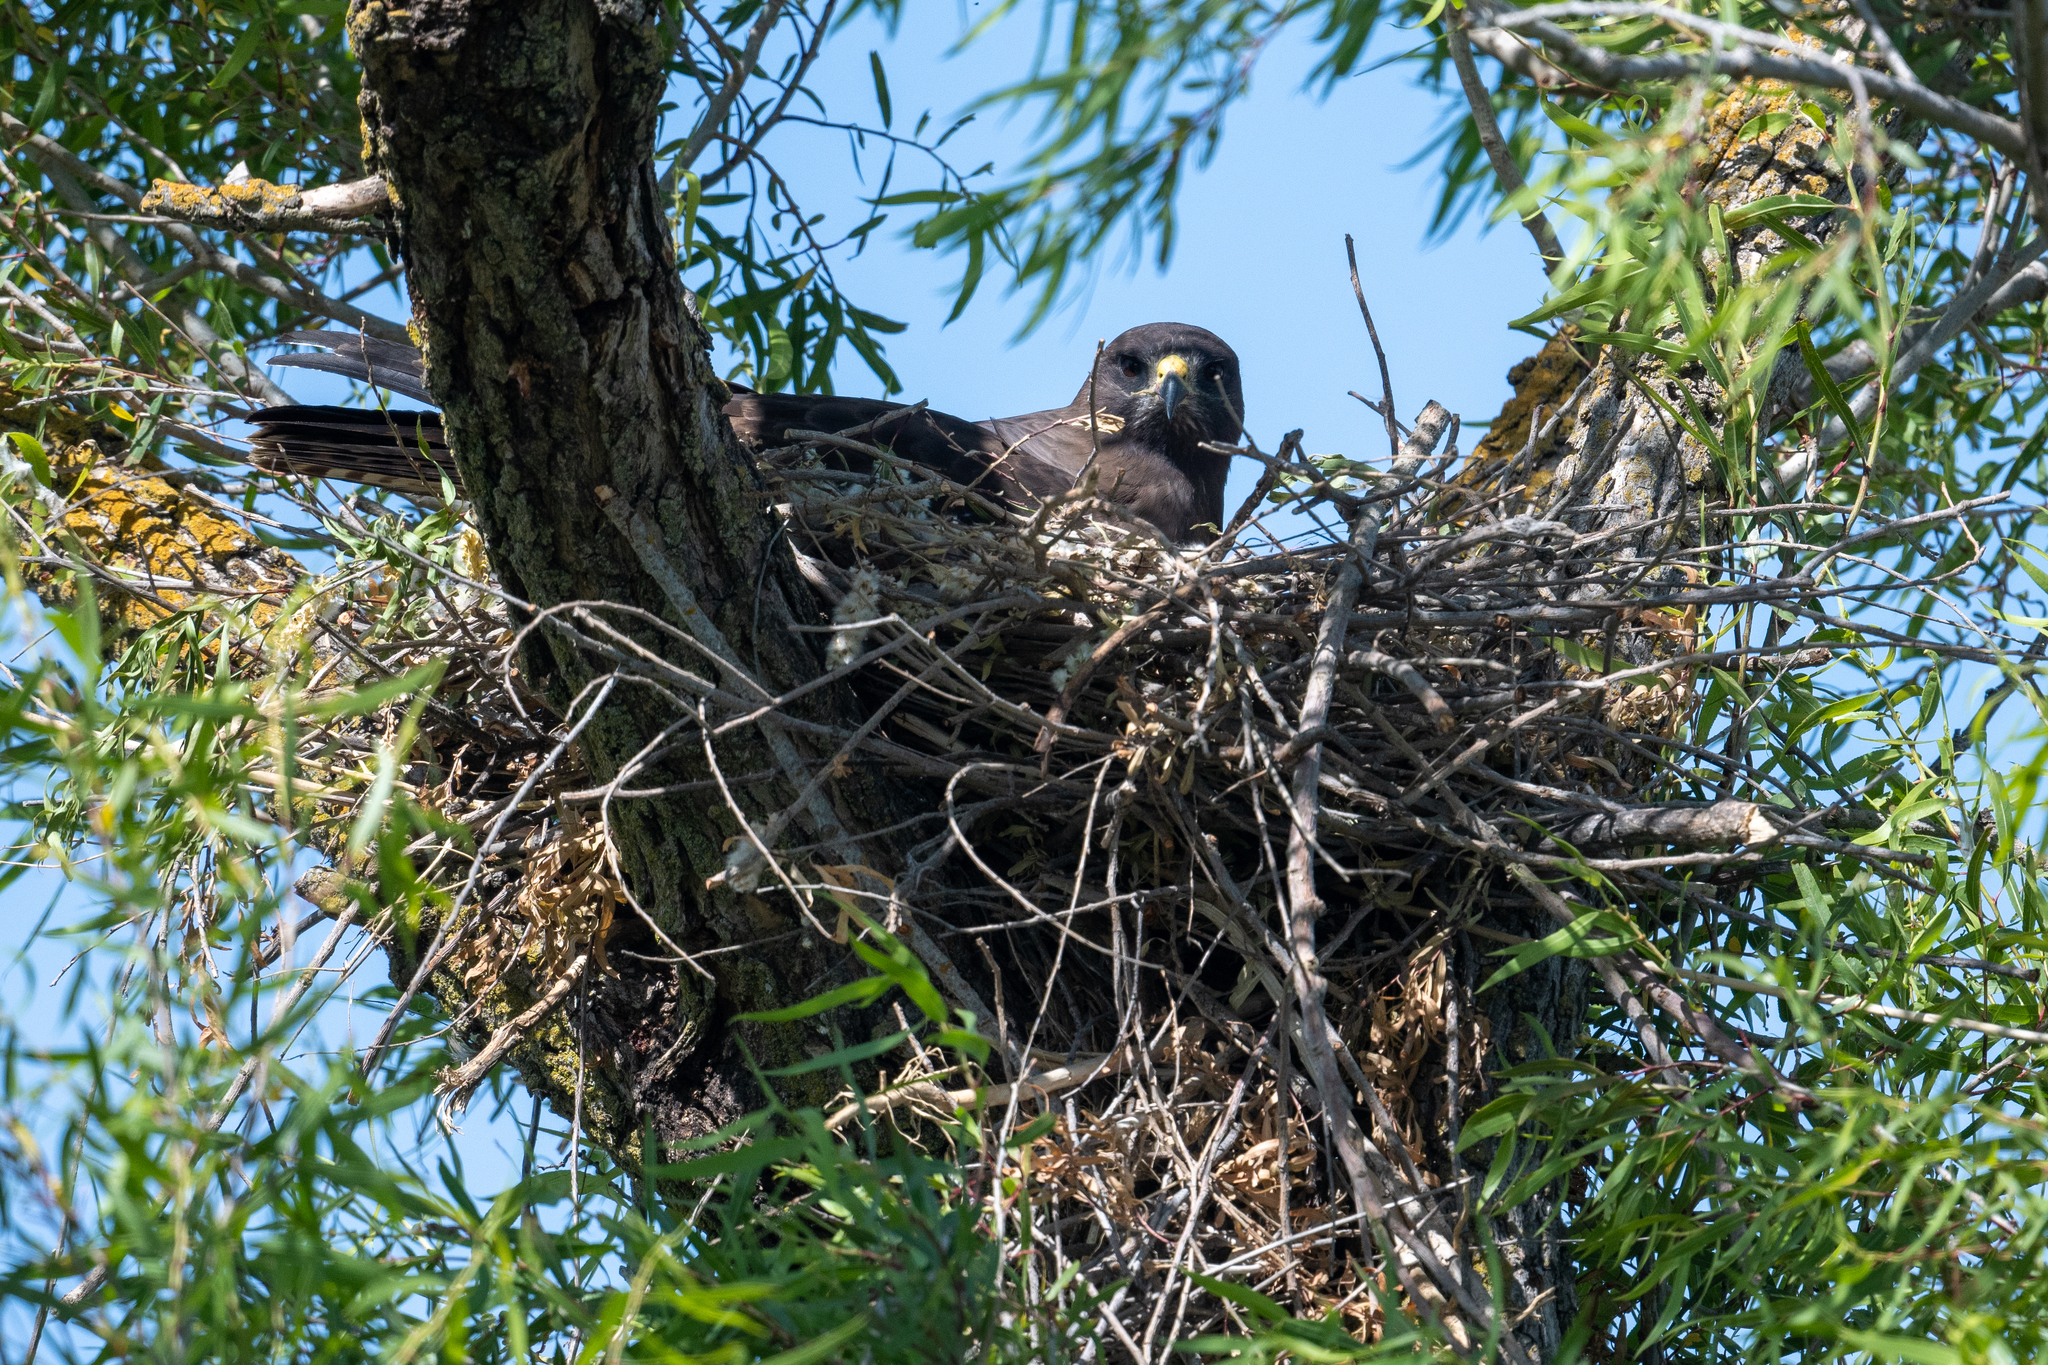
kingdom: Animalia
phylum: Chordata
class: Aves
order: Accipitriformes
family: Accipitridae
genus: Buteo
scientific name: Buteo swainsoni
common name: Swainson's hawk
